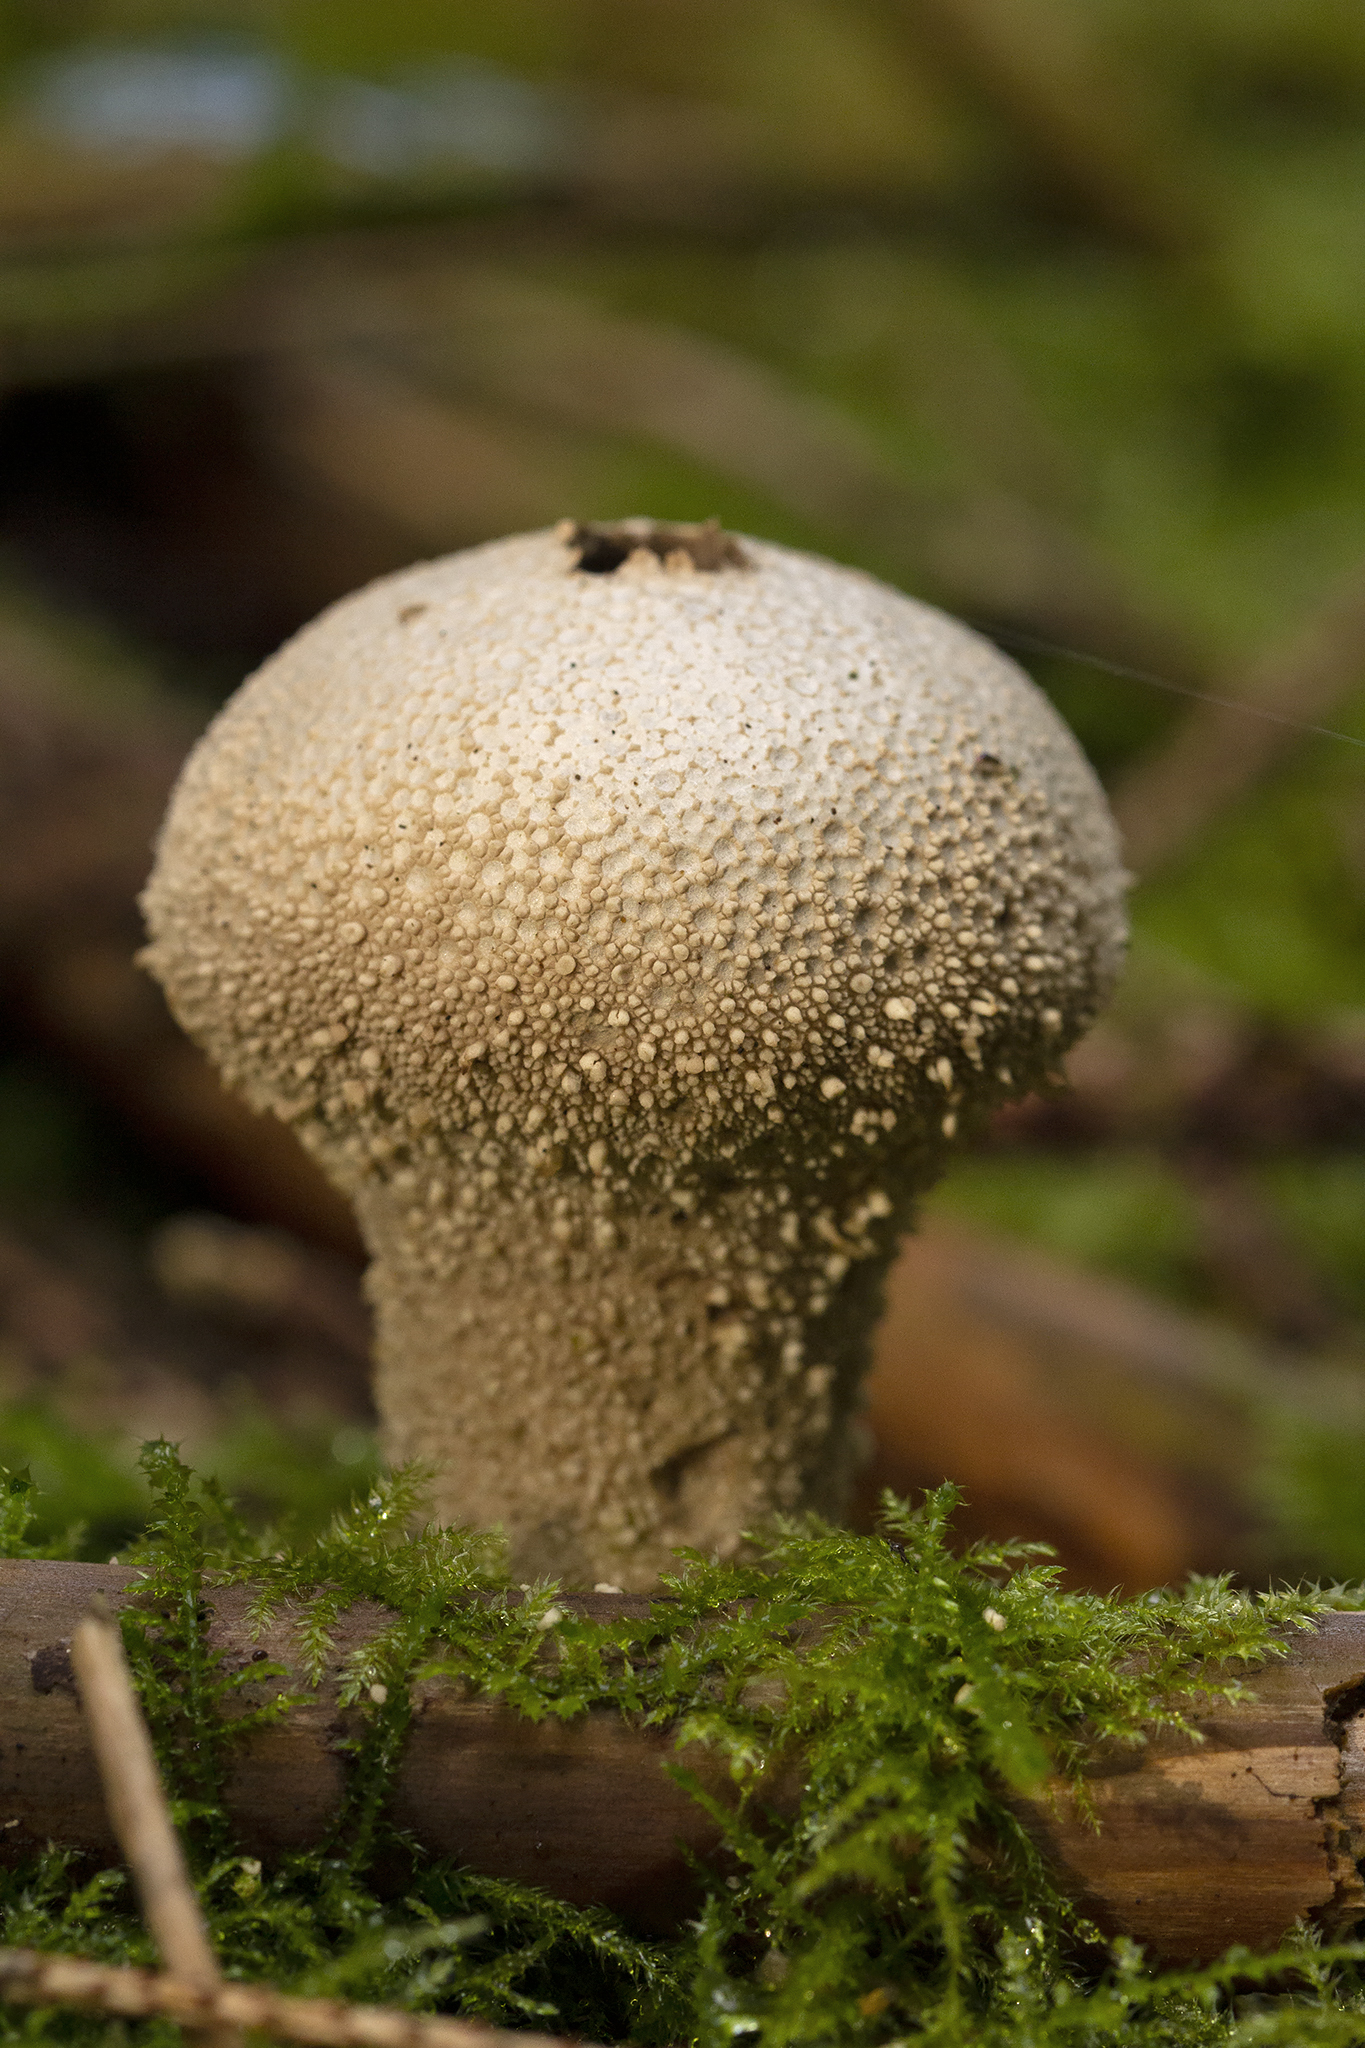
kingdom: Fungi
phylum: Basidiomycota
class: Agaricomycetes
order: Agaricales
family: Lycoperdaceae
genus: Lycoperdon
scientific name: Lycoperdon perlatum
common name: Common puffball
